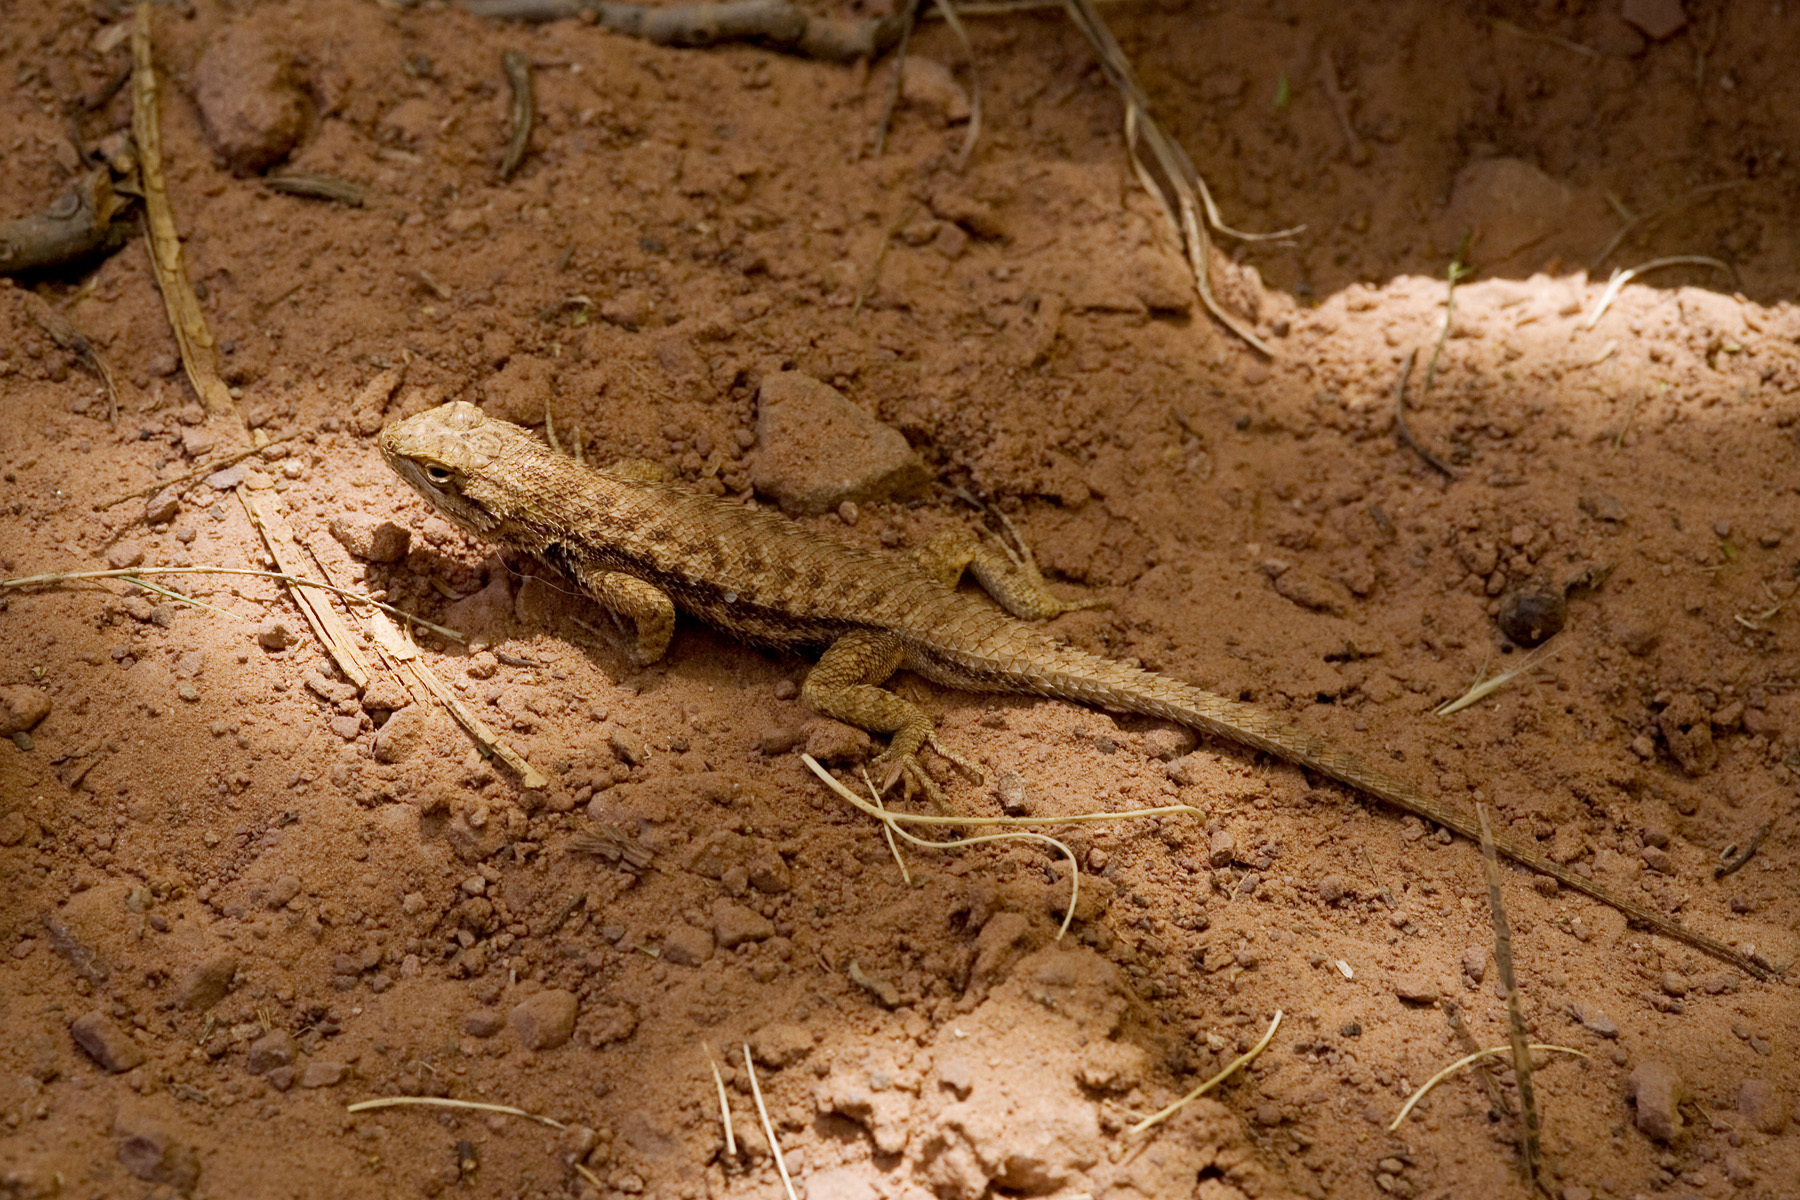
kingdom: Animalia
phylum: Chordata
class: Squamata
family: Phrynosomatidae
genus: Sceloporus
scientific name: Sceloporus tristichus
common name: Plateau fence lizard
